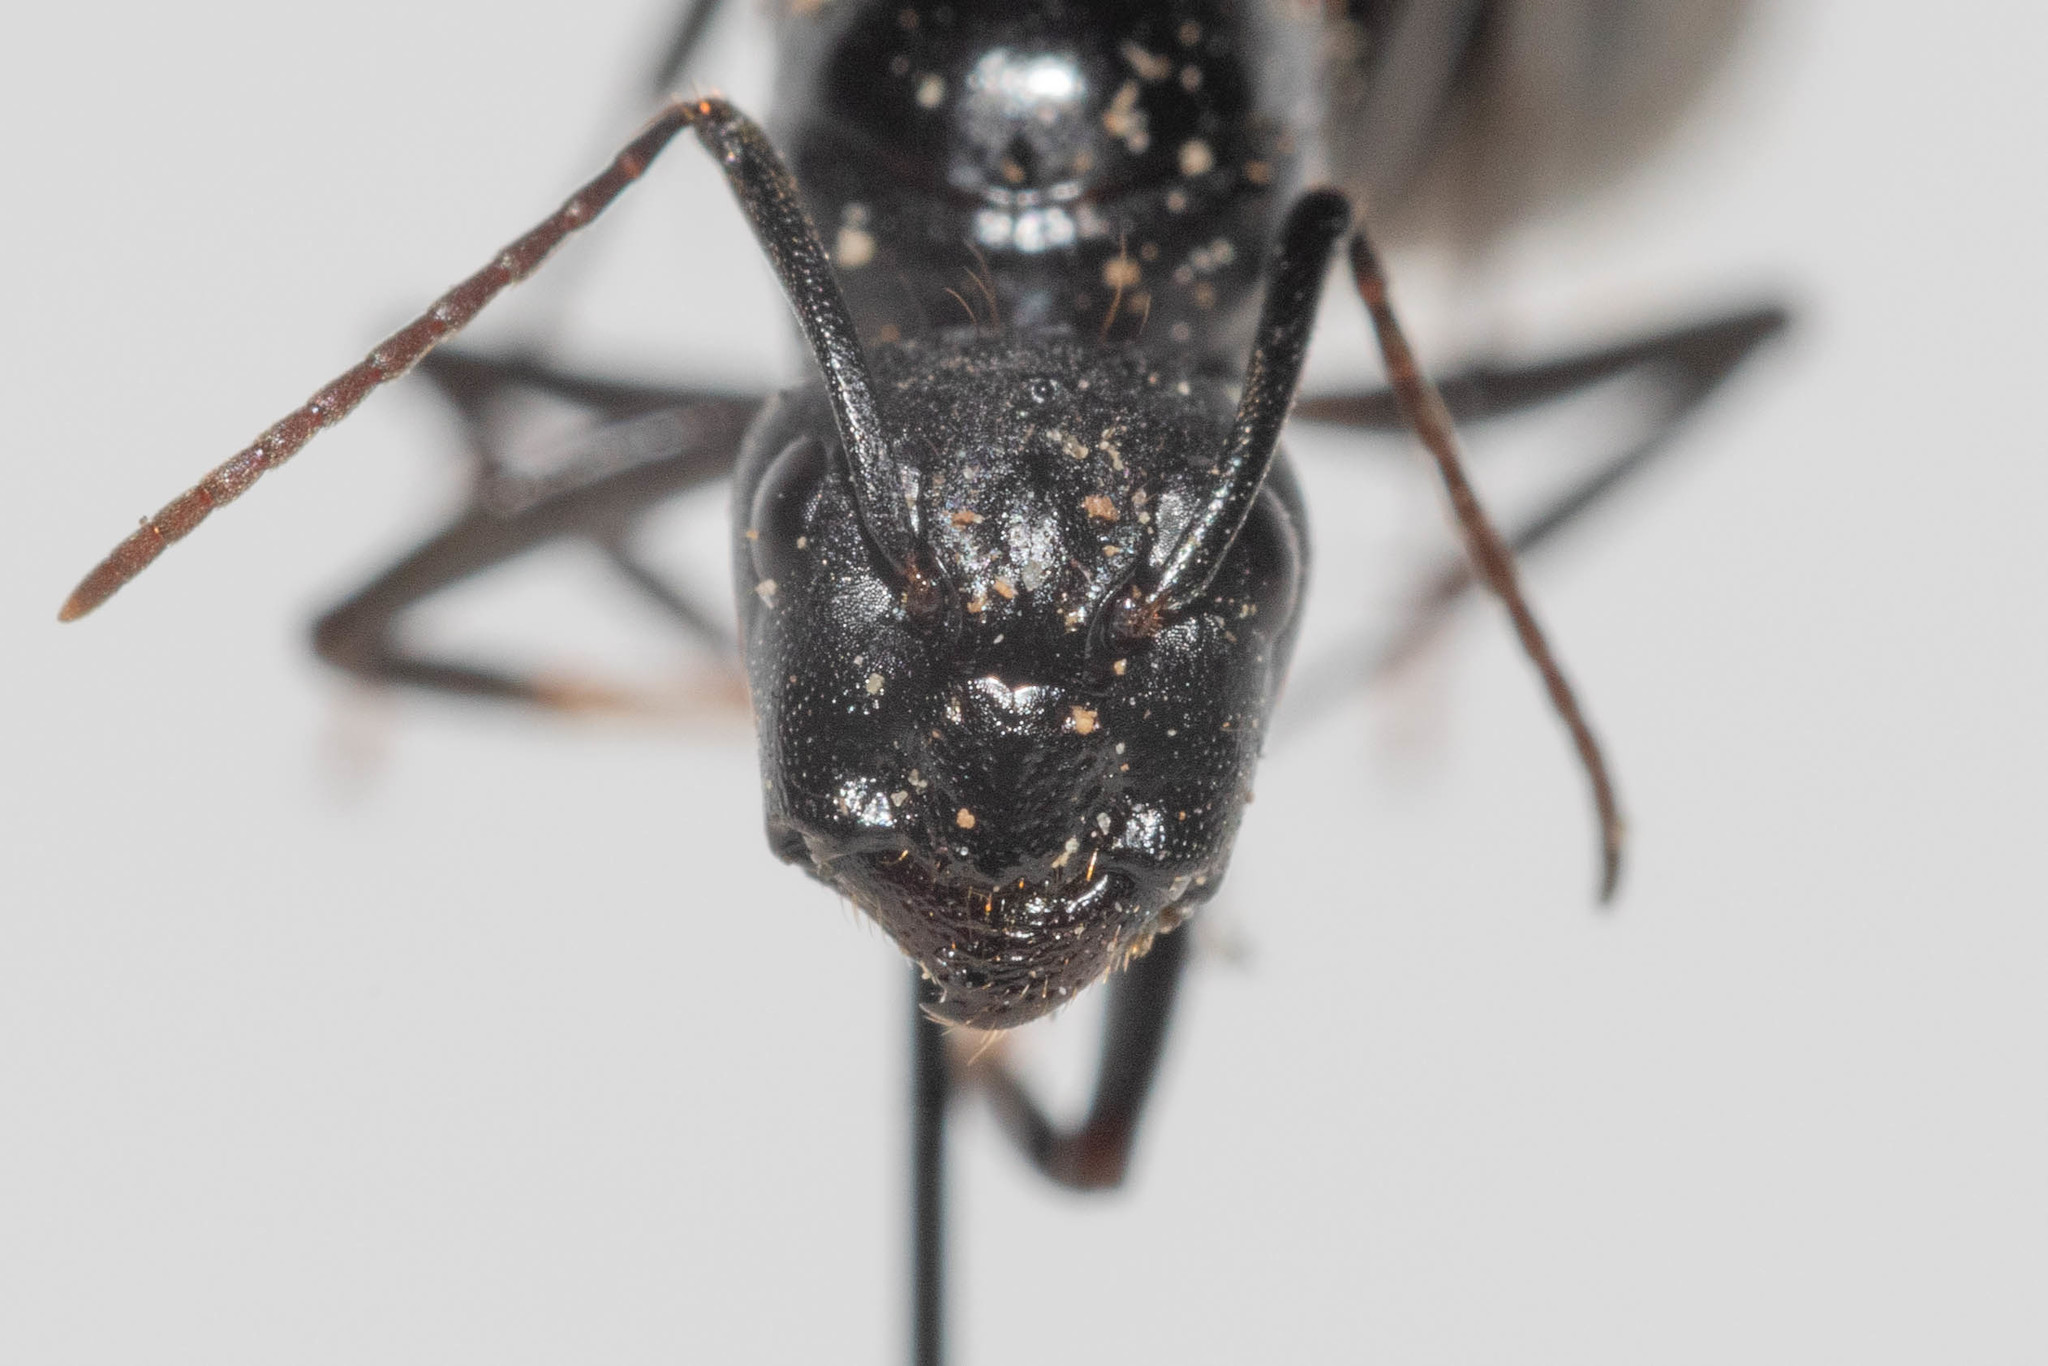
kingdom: Animalia
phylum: Arthropoda
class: Insecta
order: Hymenoptera
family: Formicidae
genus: Camponotus
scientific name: Camponotus vicinus
